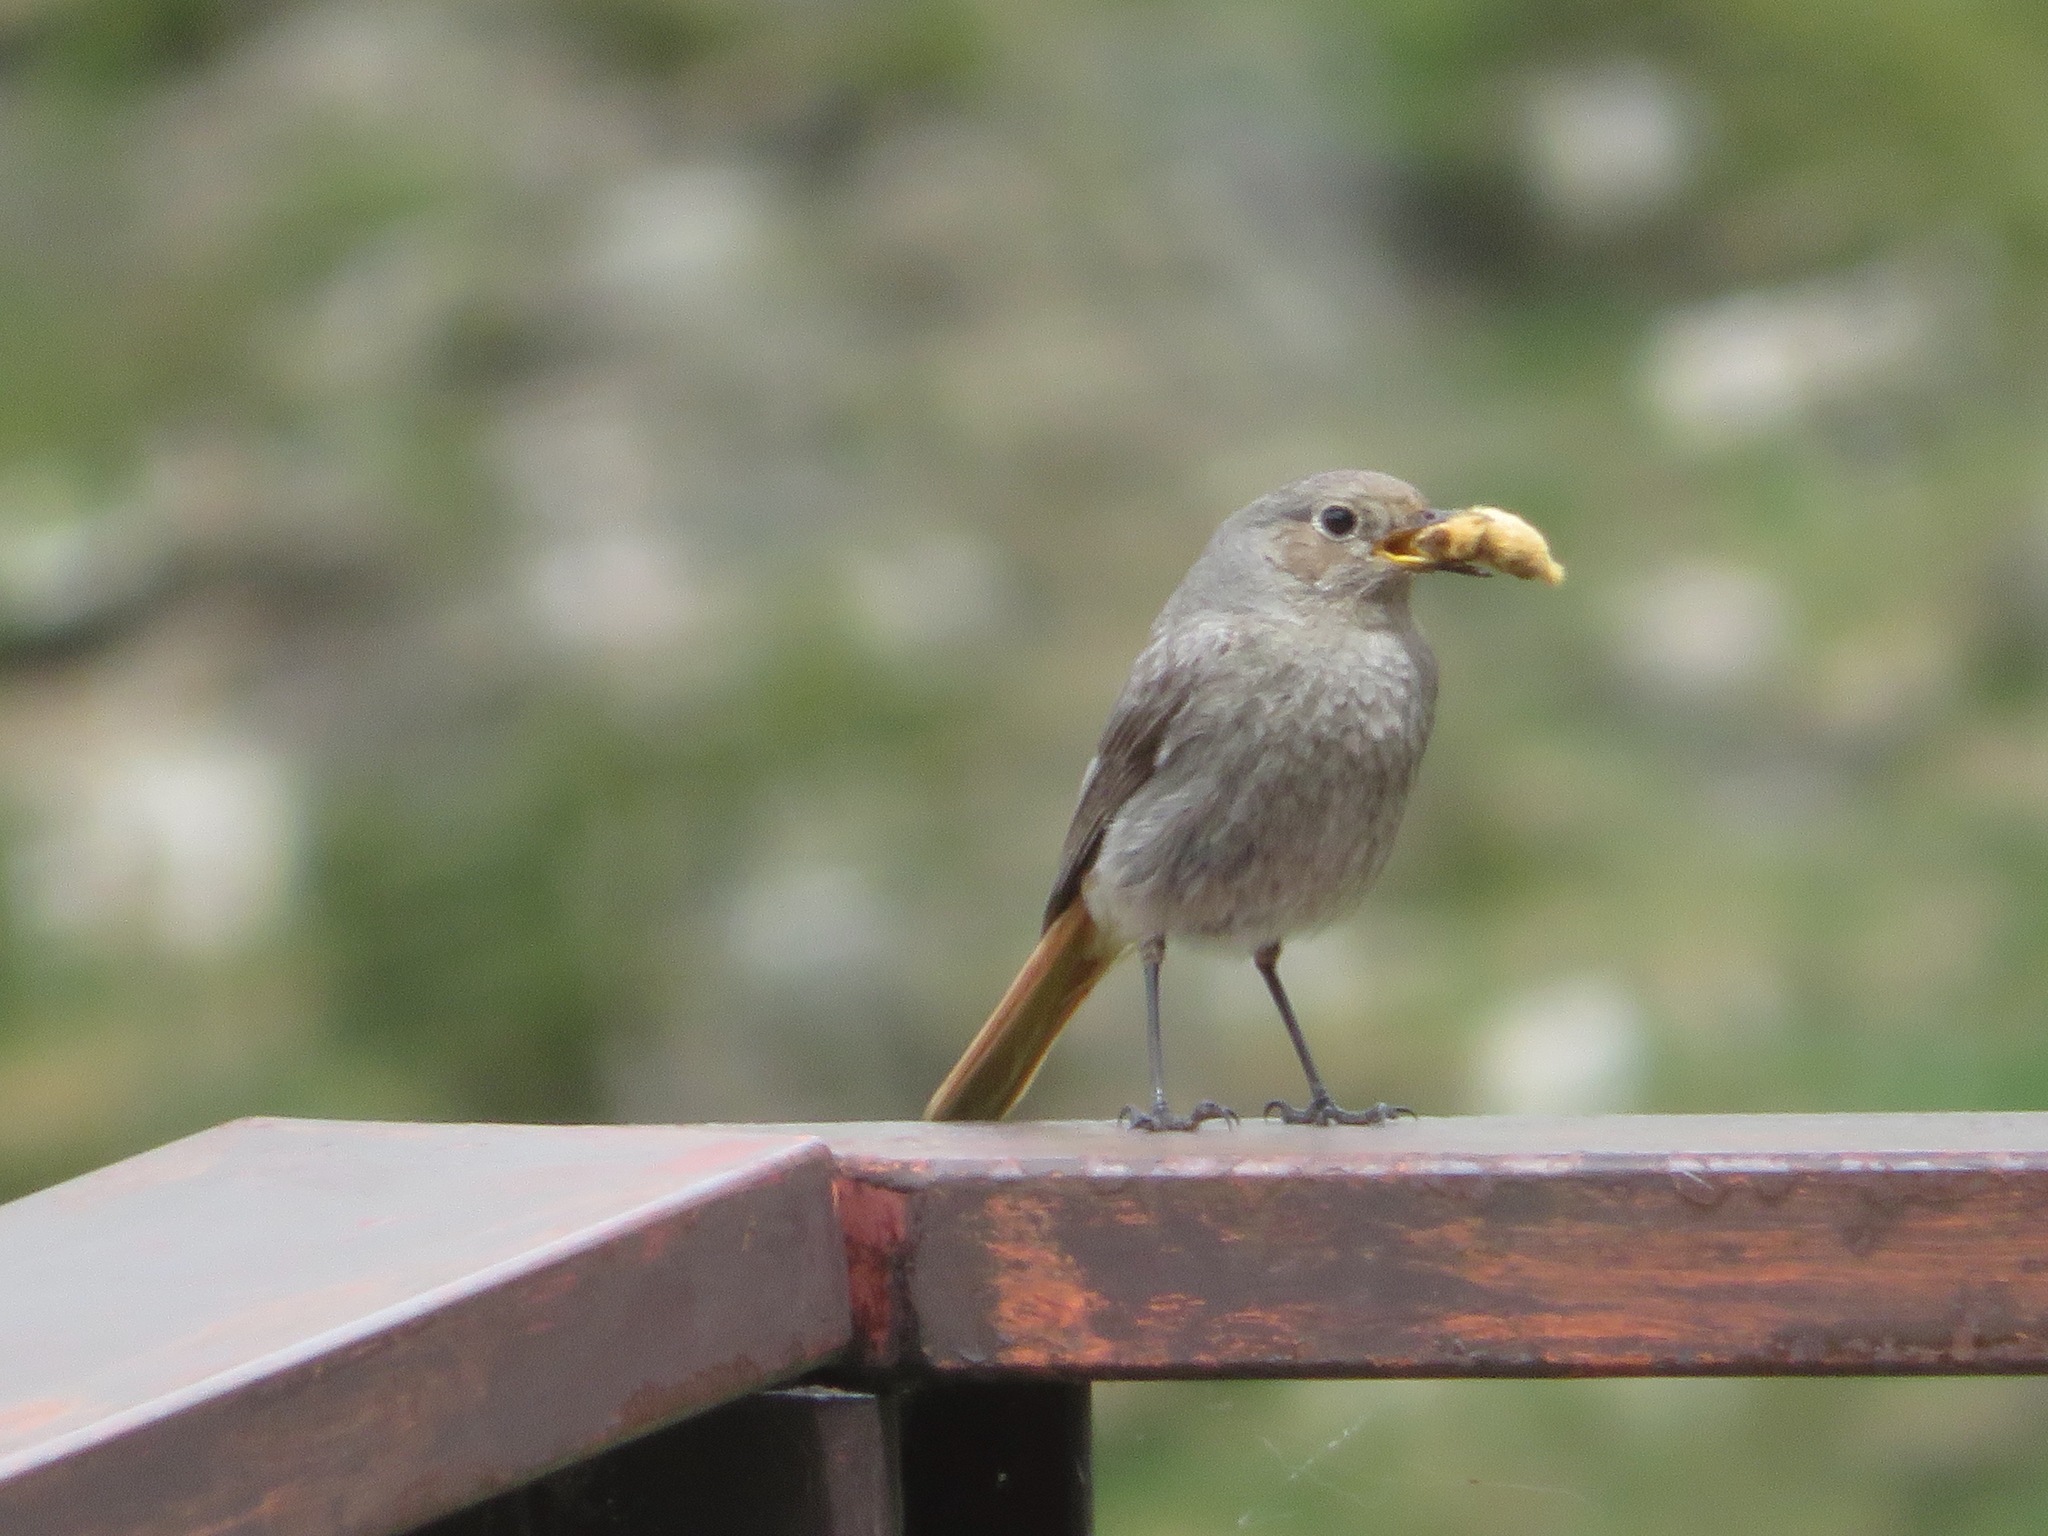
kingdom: Animalia
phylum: Chordata
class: Aves
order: Passeriformes
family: Muscicapidae
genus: Phoenicurus
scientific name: Phoenicurus ochruros
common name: Black redstart
